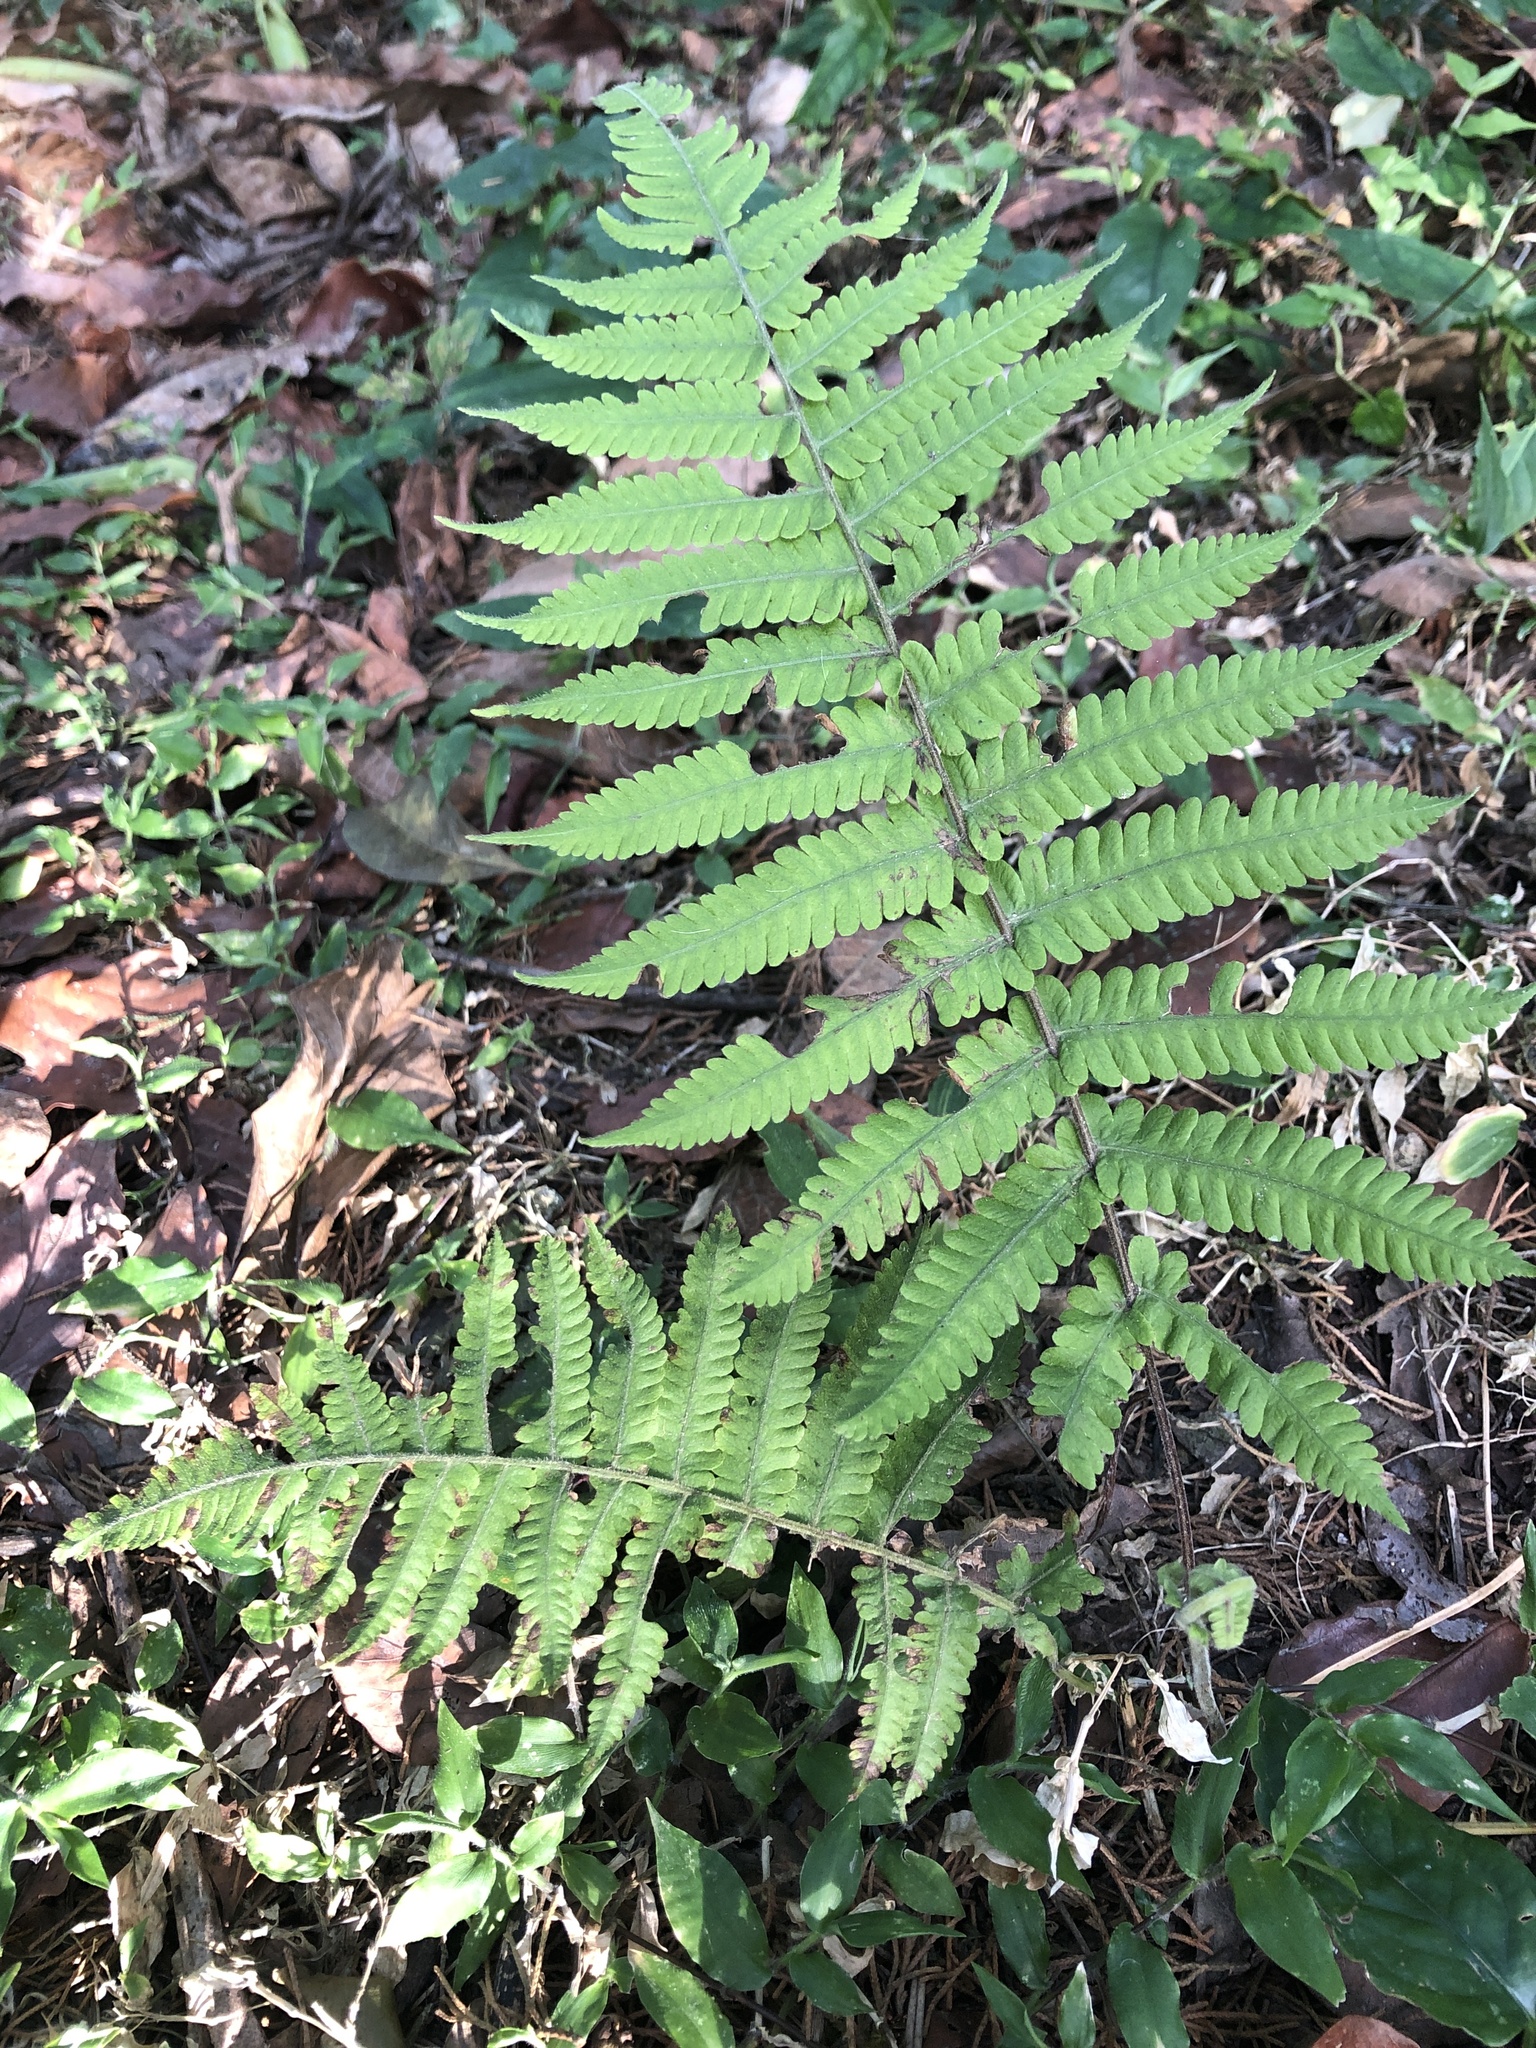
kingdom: Plantae
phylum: Tracheophyta
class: Polypodiopsida
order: Polypodiales
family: Thelypteridaceae
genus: Christella
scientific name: Christella dentata
